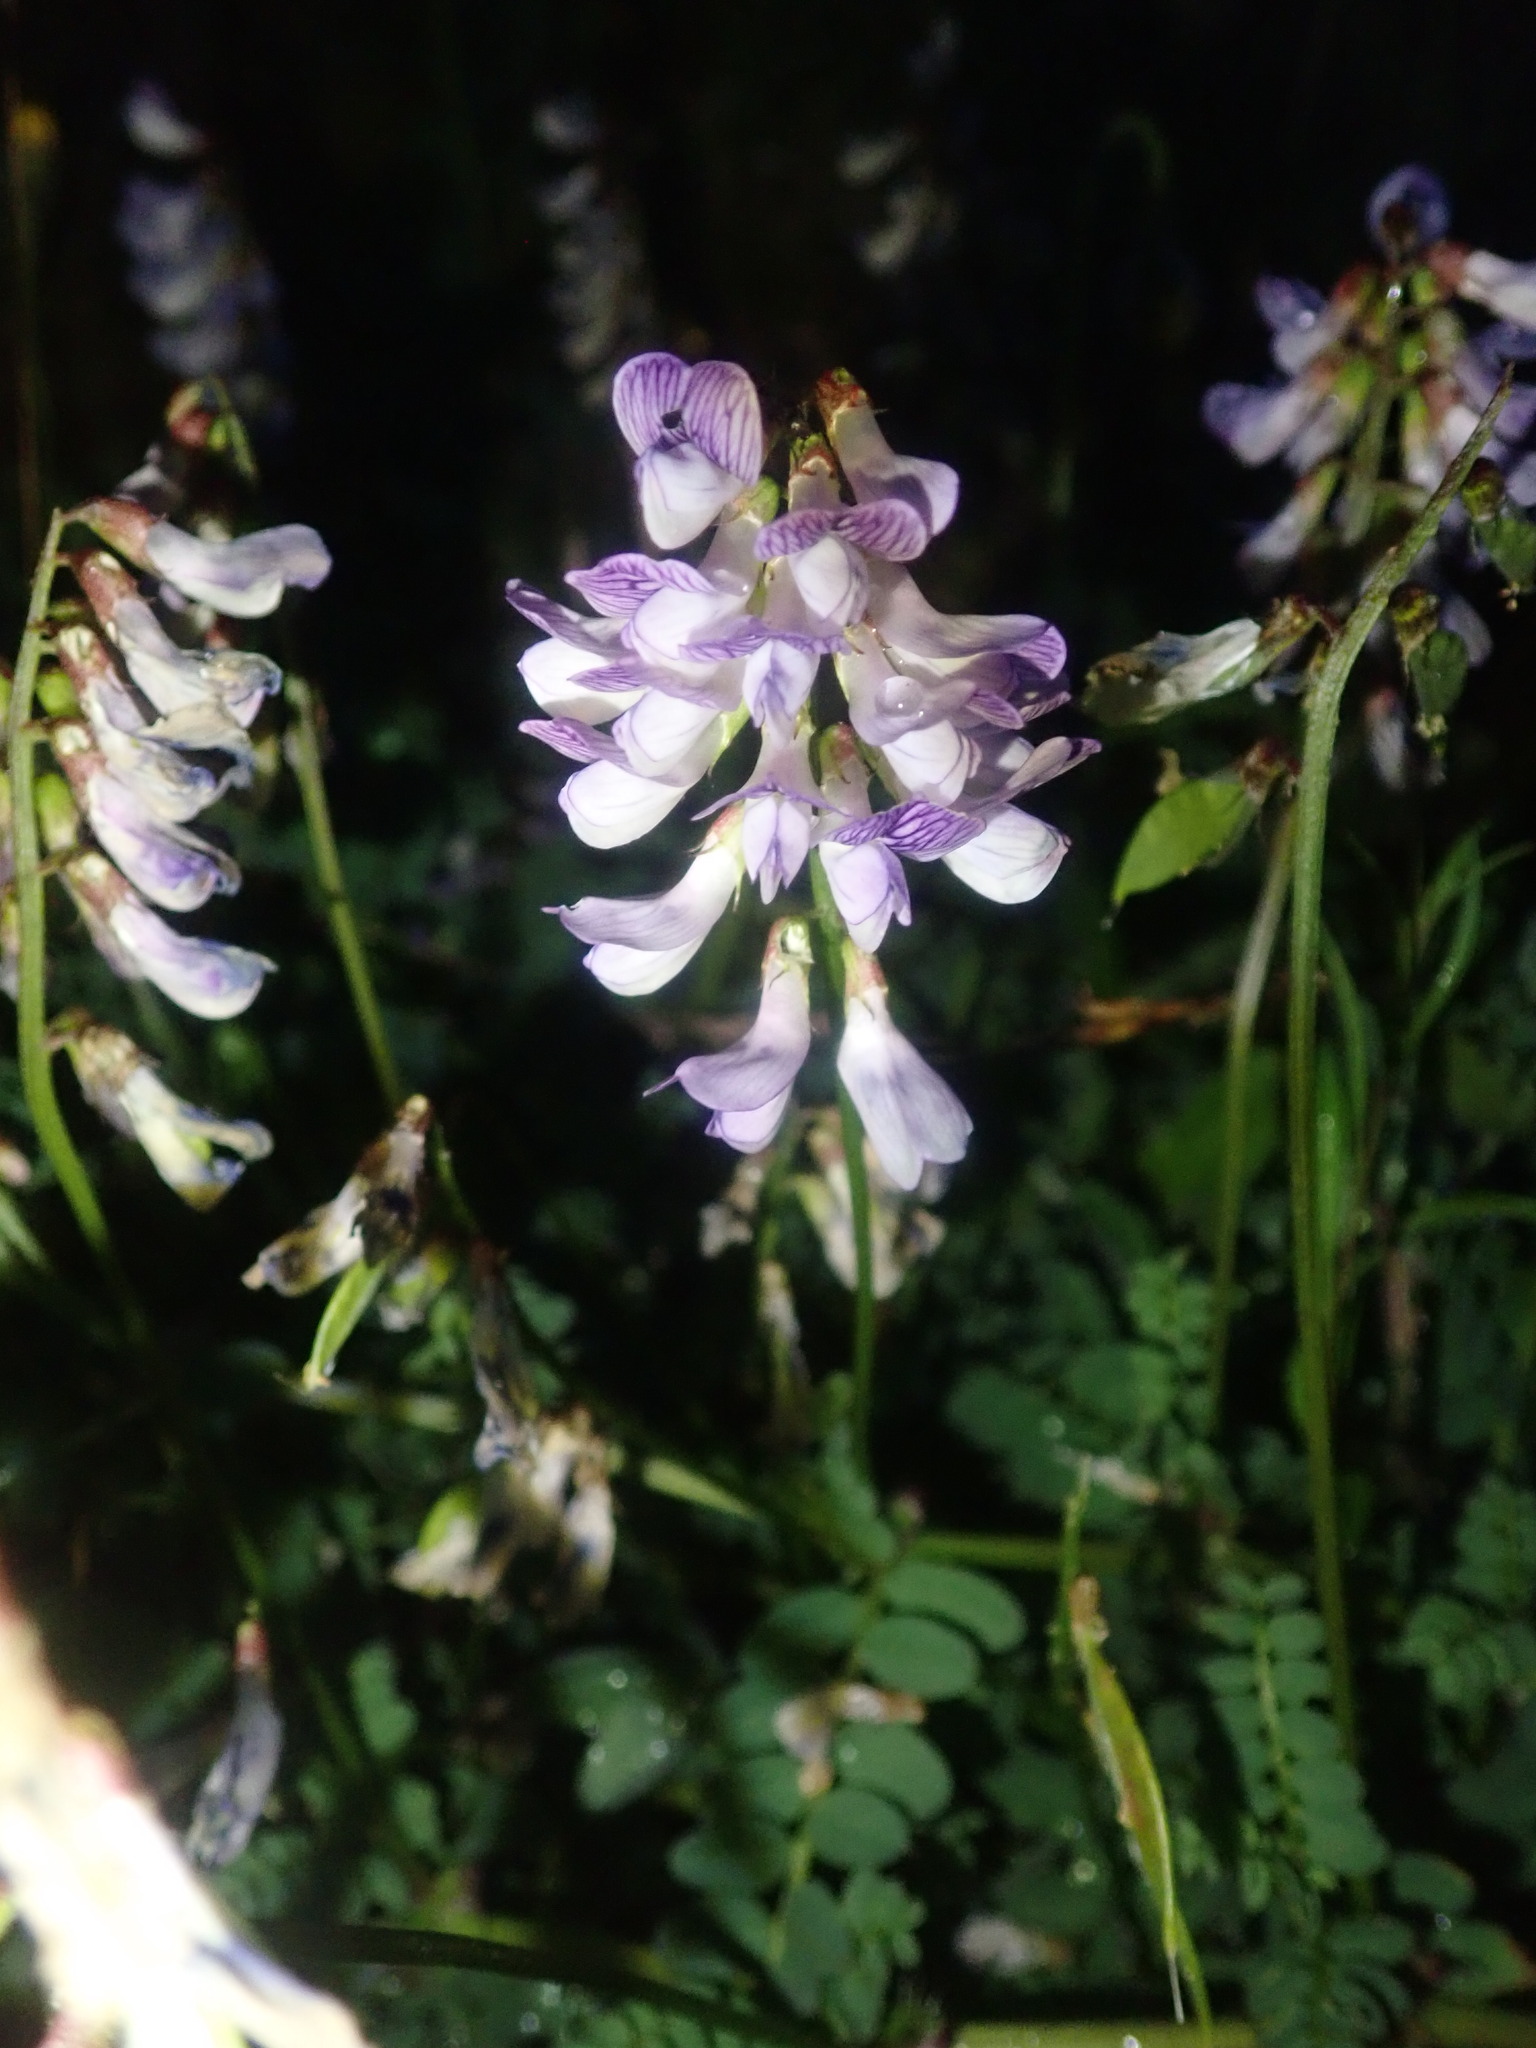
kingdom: Plantae
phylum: Tracheophyta
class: Magnoliopsida
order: Fabales
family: Fabaceae
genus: Vicia
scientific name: Vicia sylvatica
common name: Wood vetch
